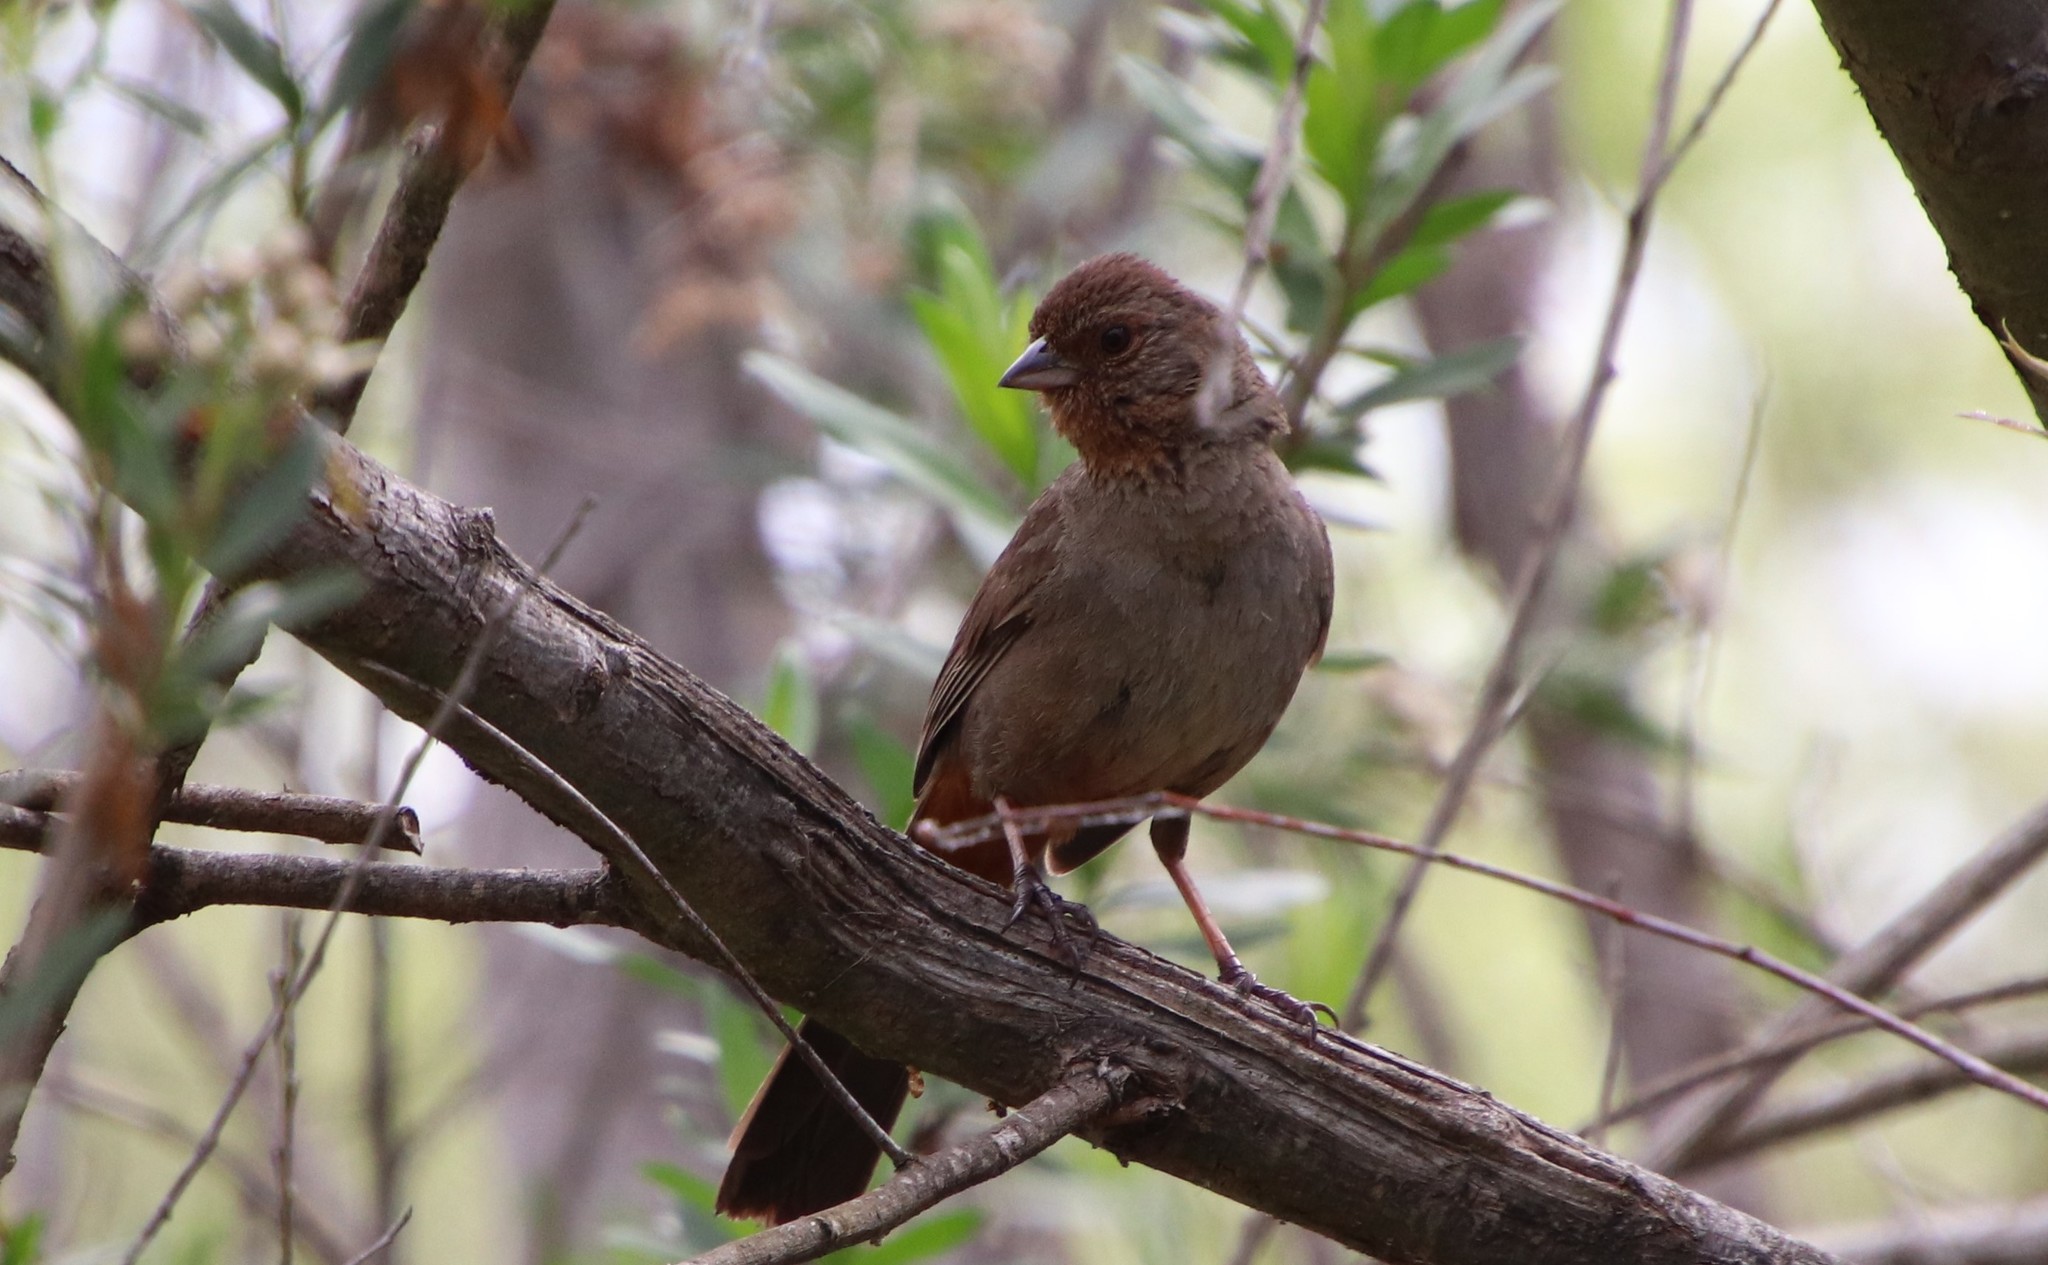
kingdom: Animalia
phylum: Chordata
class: Aves
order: Passeriformes
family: Passerellidae
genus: Melozone
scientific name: Melozone crissalis
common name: California towhee
